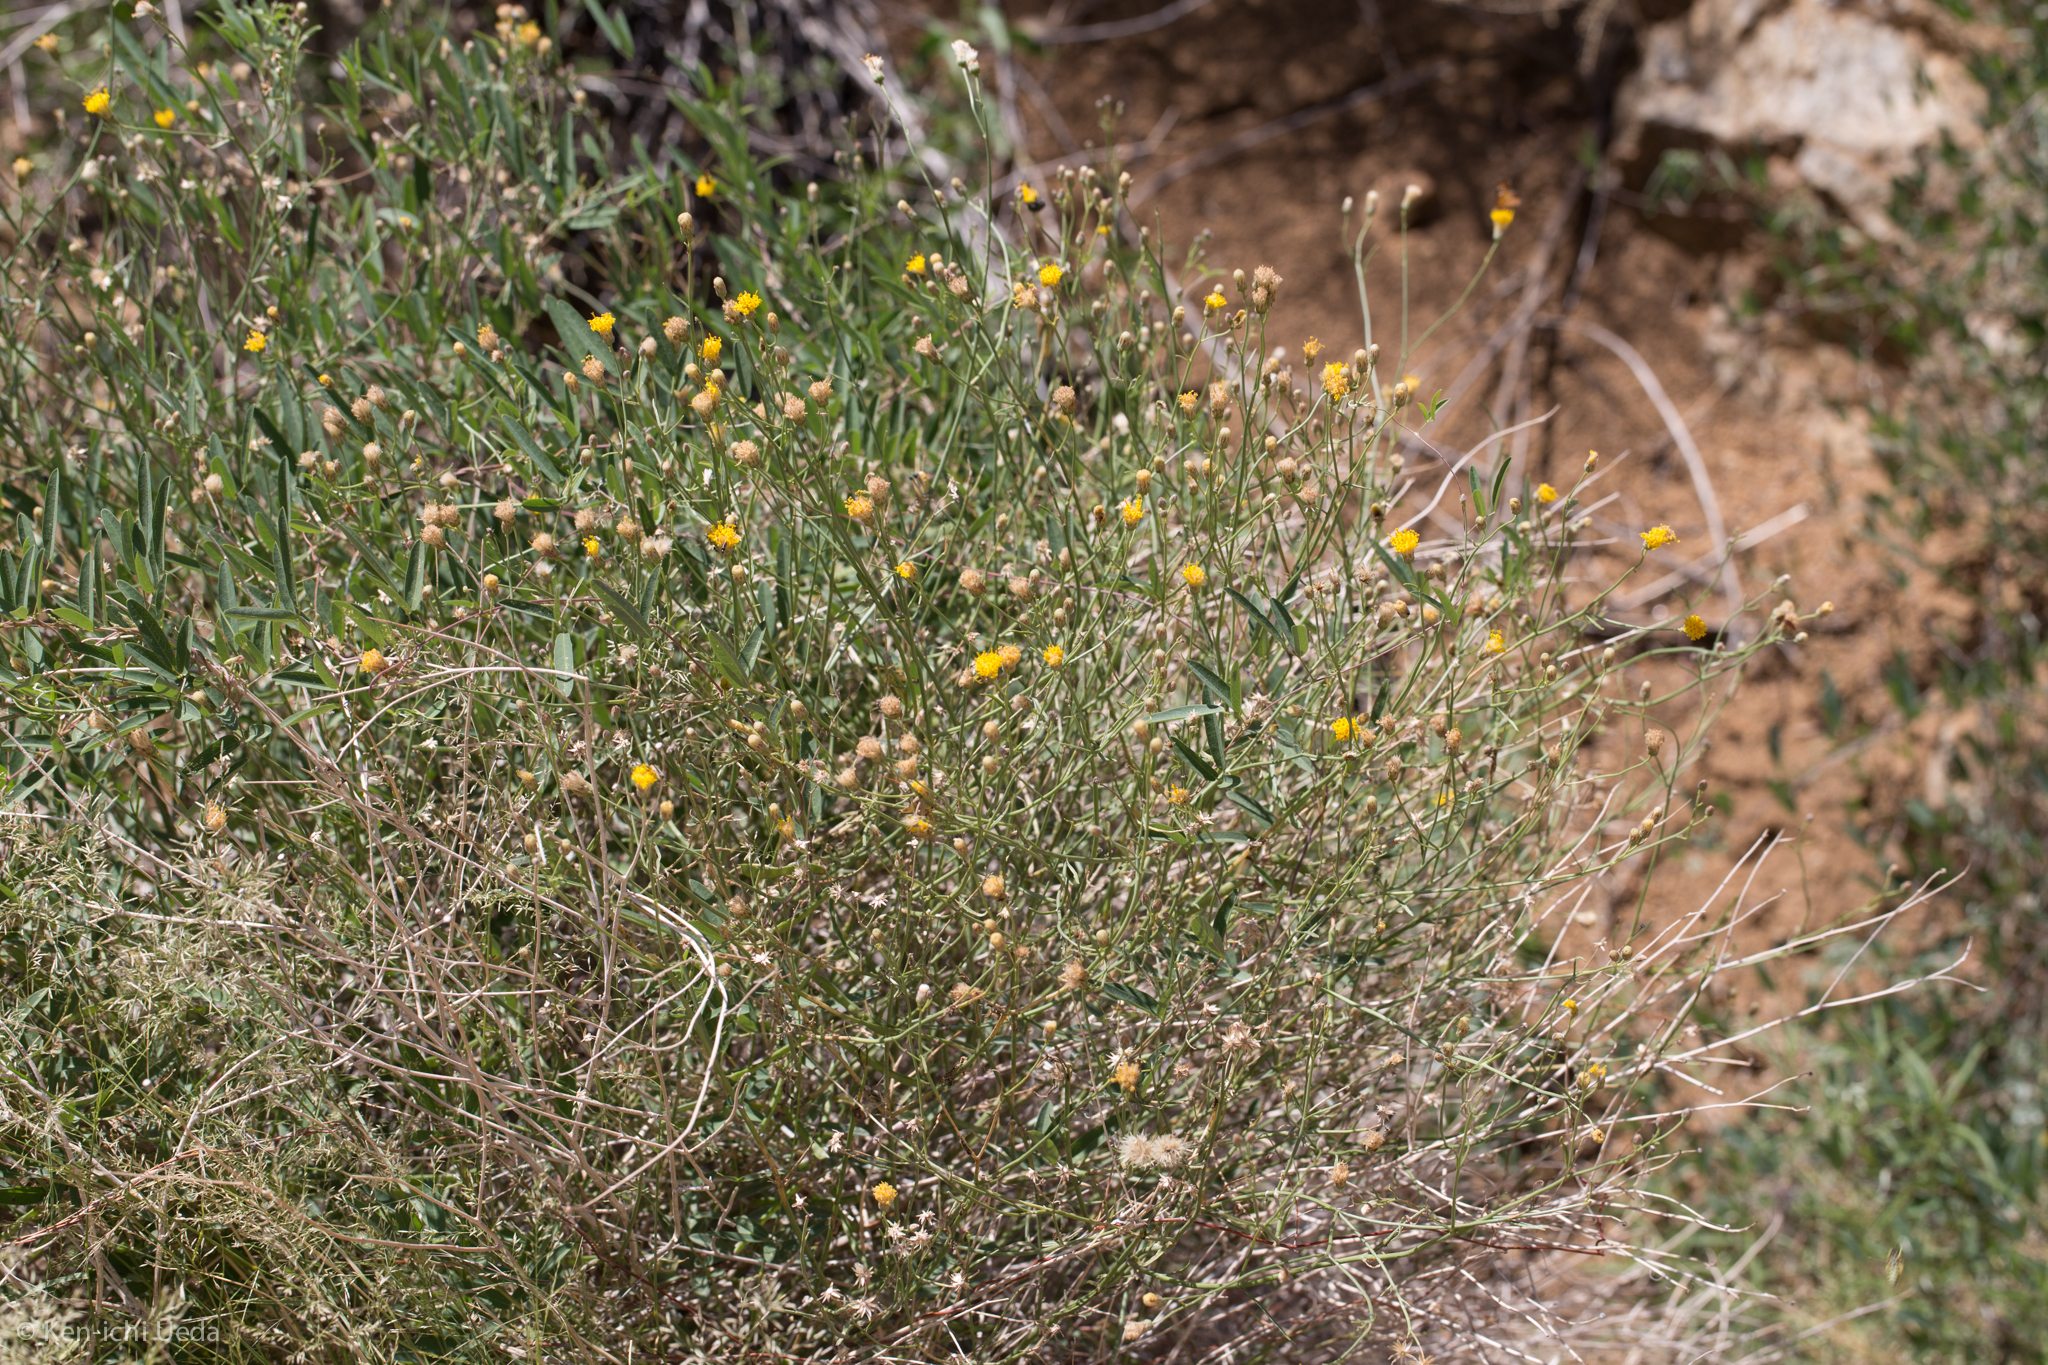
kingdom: Plantae
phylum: Tracheophyta
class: Magnoliopsida
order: Asterales
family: Asteraceae
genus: Bebbia
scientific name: Bebbia juncea
